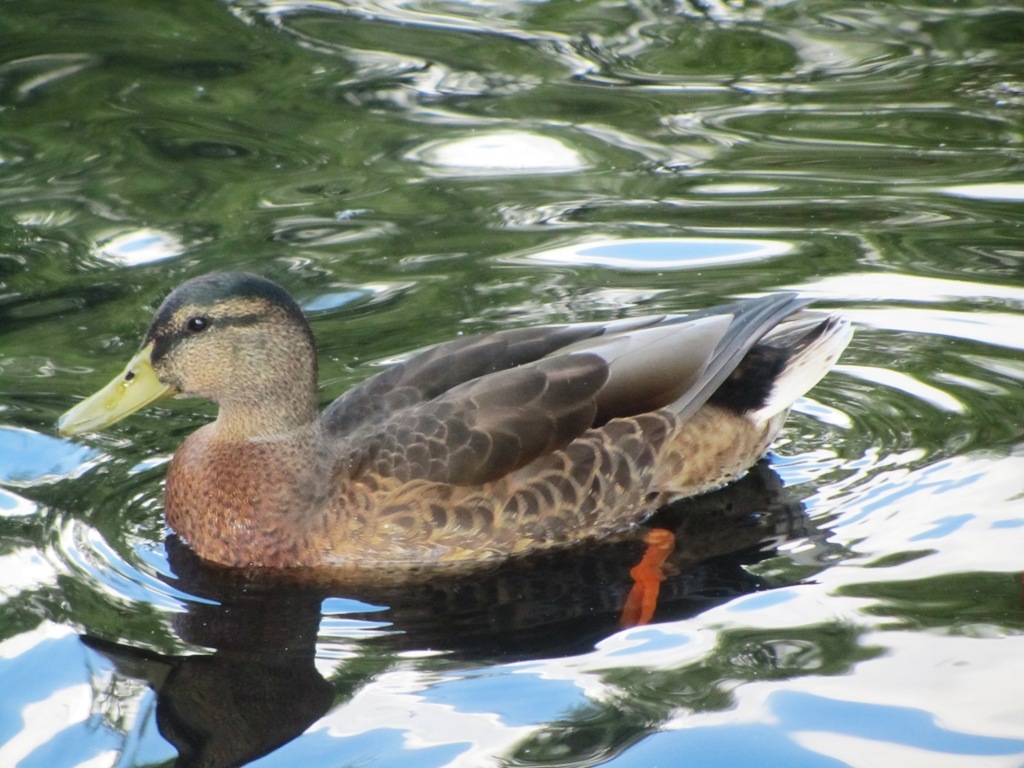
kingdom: Animalia
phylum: Chordata
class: Aves
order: Anseriformes
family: Anatidae
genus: Anas
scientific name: Anas platyrhynchos
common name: Mallard
